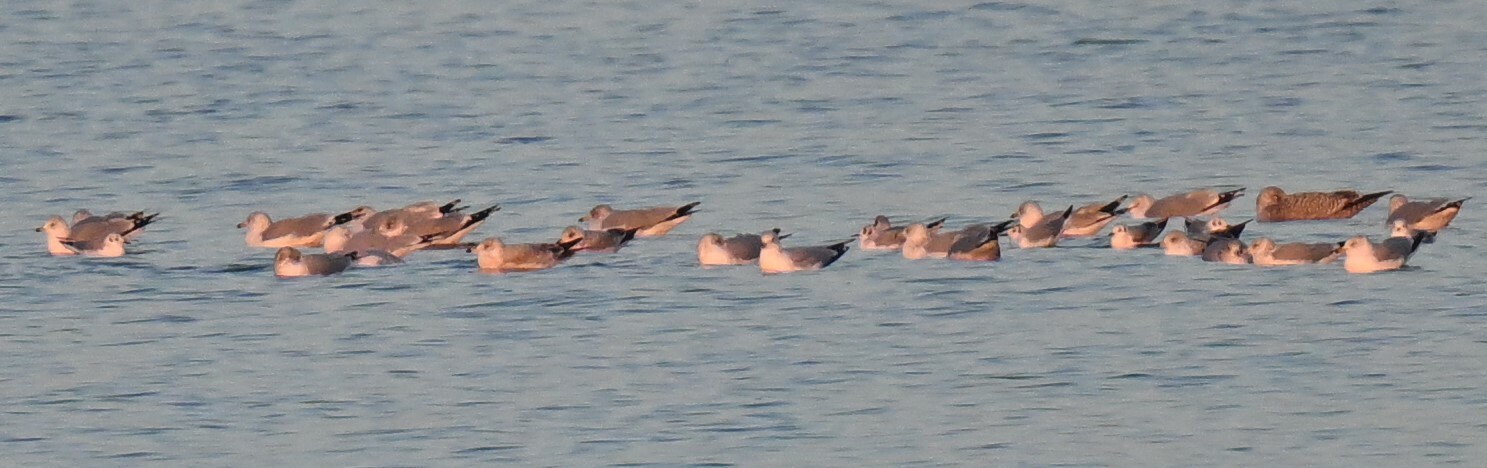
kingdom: Animalia
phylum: Chordata
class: Aves
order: Charadriiformes
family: Laridae
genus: Chroicocephalus
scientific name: Chroicocephalus philadelphia
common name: Bonaparte's gull
